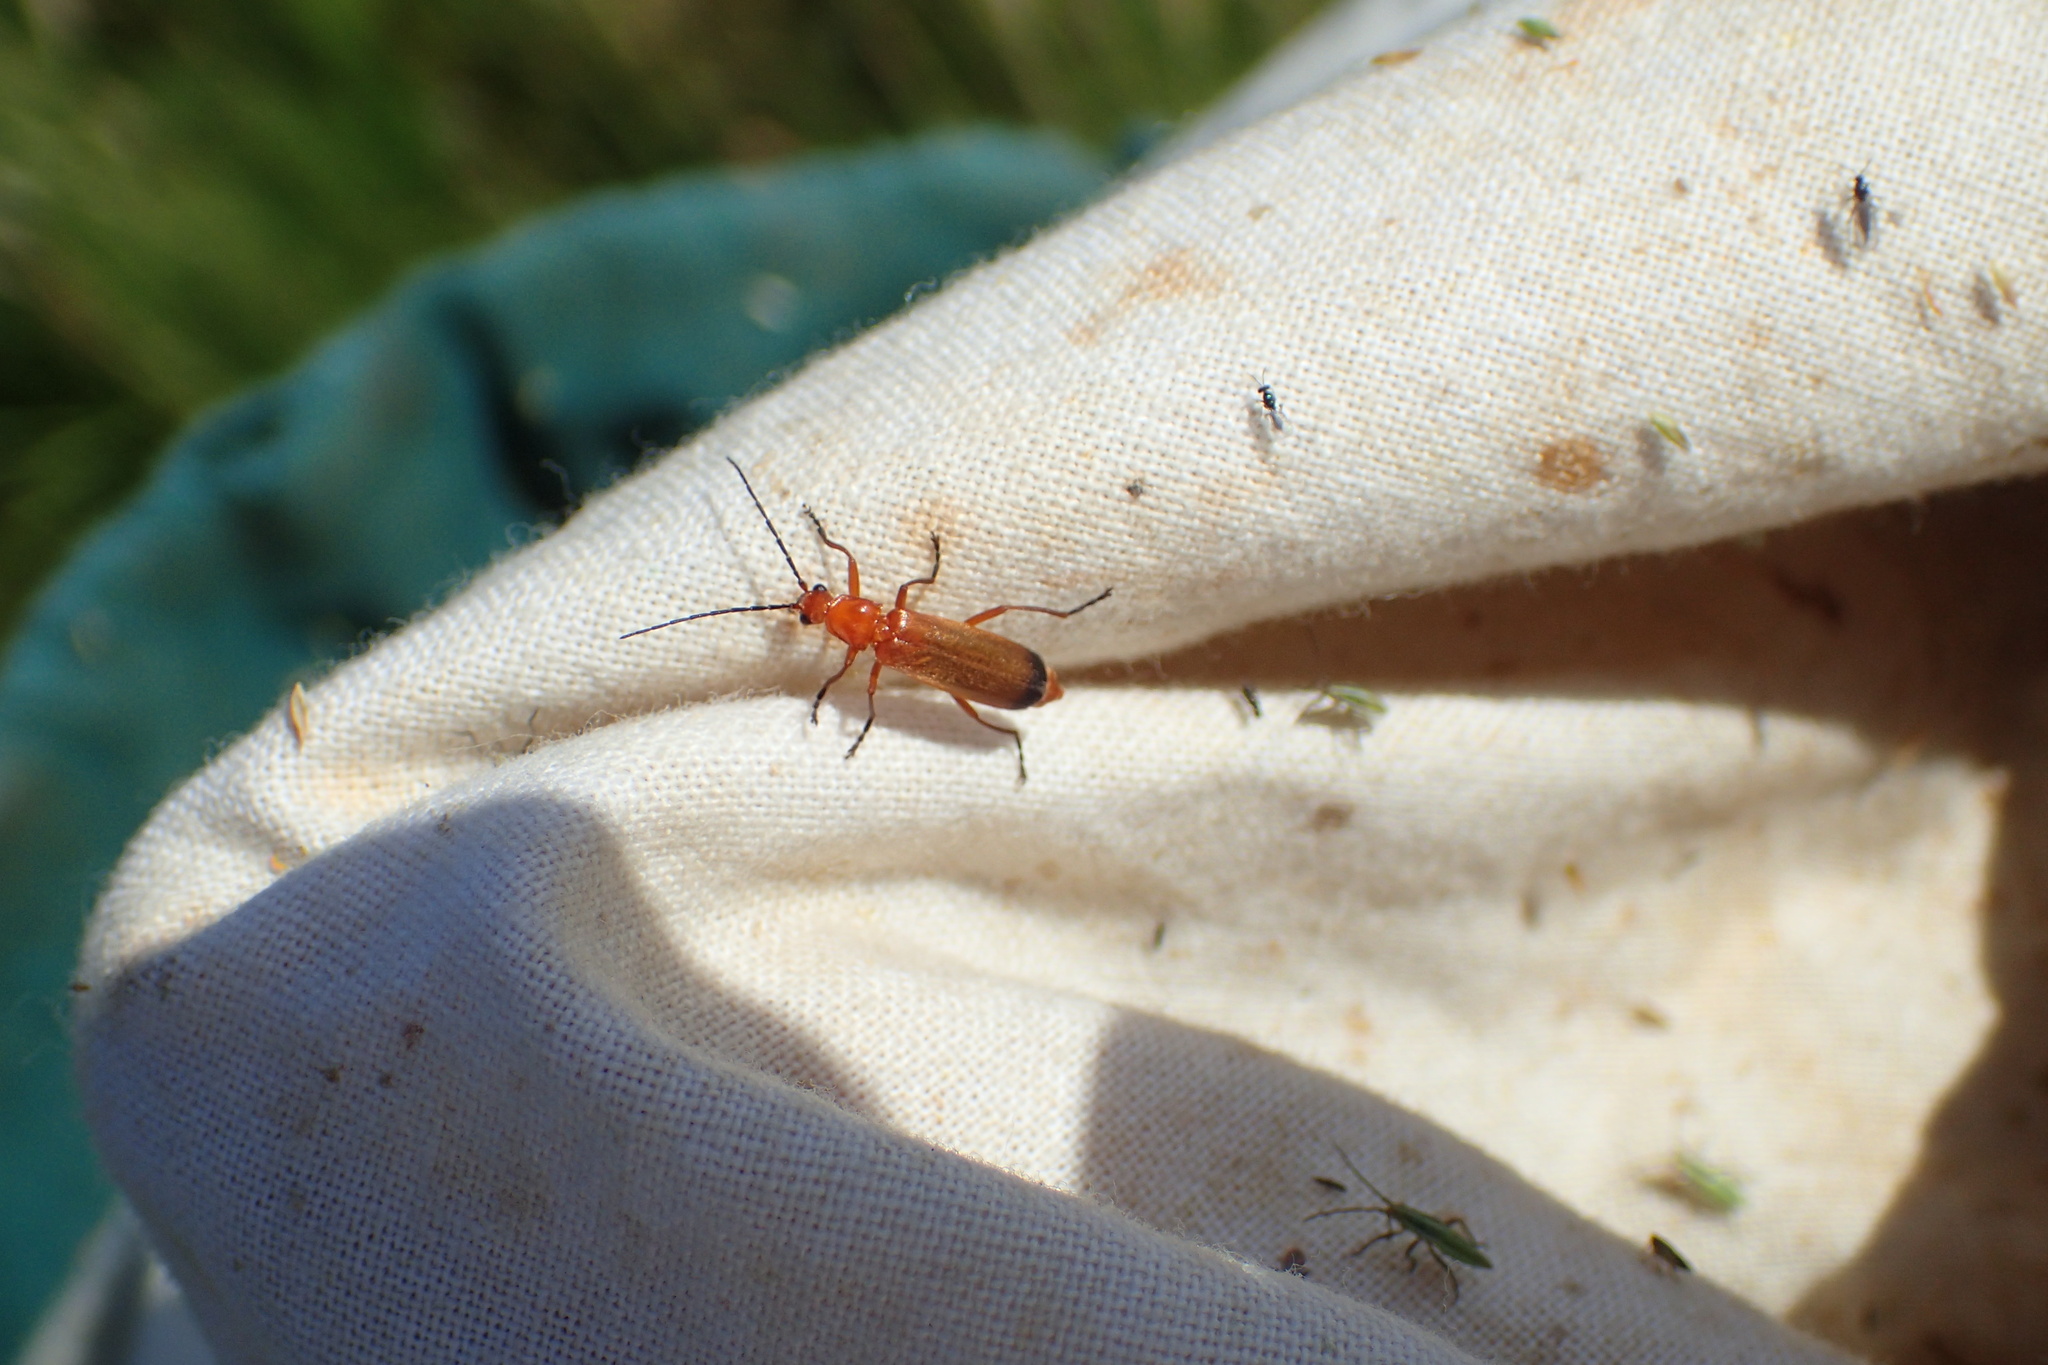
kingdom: Animalia
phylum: Arthropoda
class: Insecta
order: Coleoptera
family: Cantharidae
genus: Rhagonycha
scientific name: Rhagonycha fulva
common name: Common red soldier beetle
